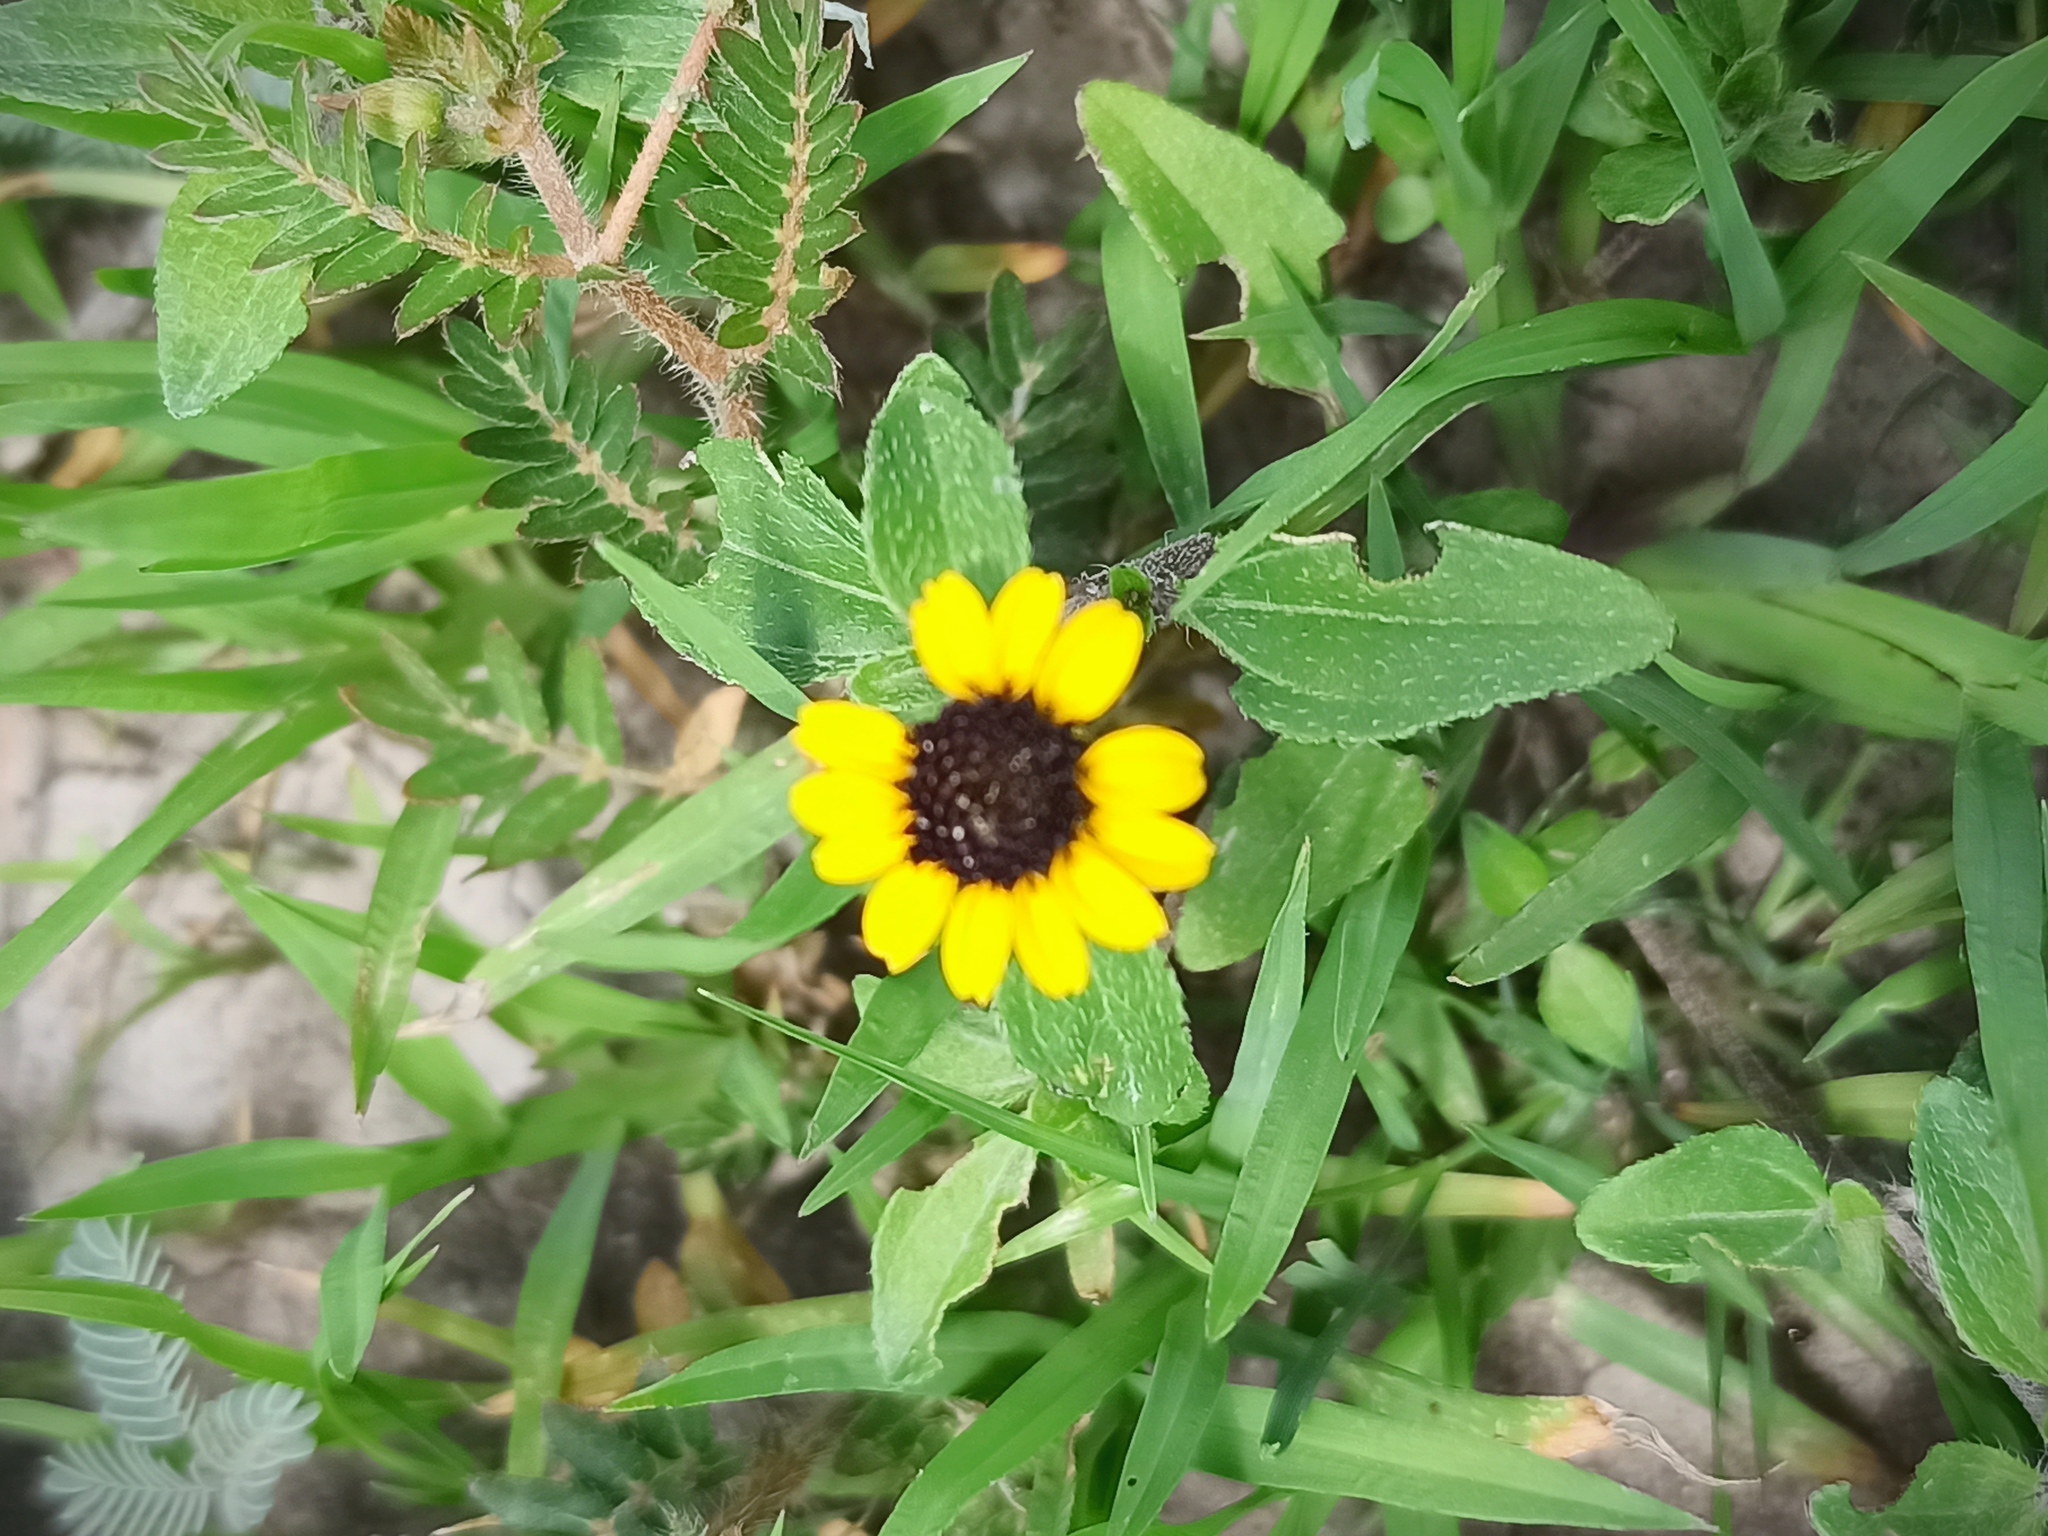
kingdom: Plantae
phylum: Tracheophyta
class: Magnoliopsida
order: Asterales
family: Asteraceae
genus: Sanvitalia
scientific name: Sanvitalia procumbens
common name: Mexican creeping zinnia
